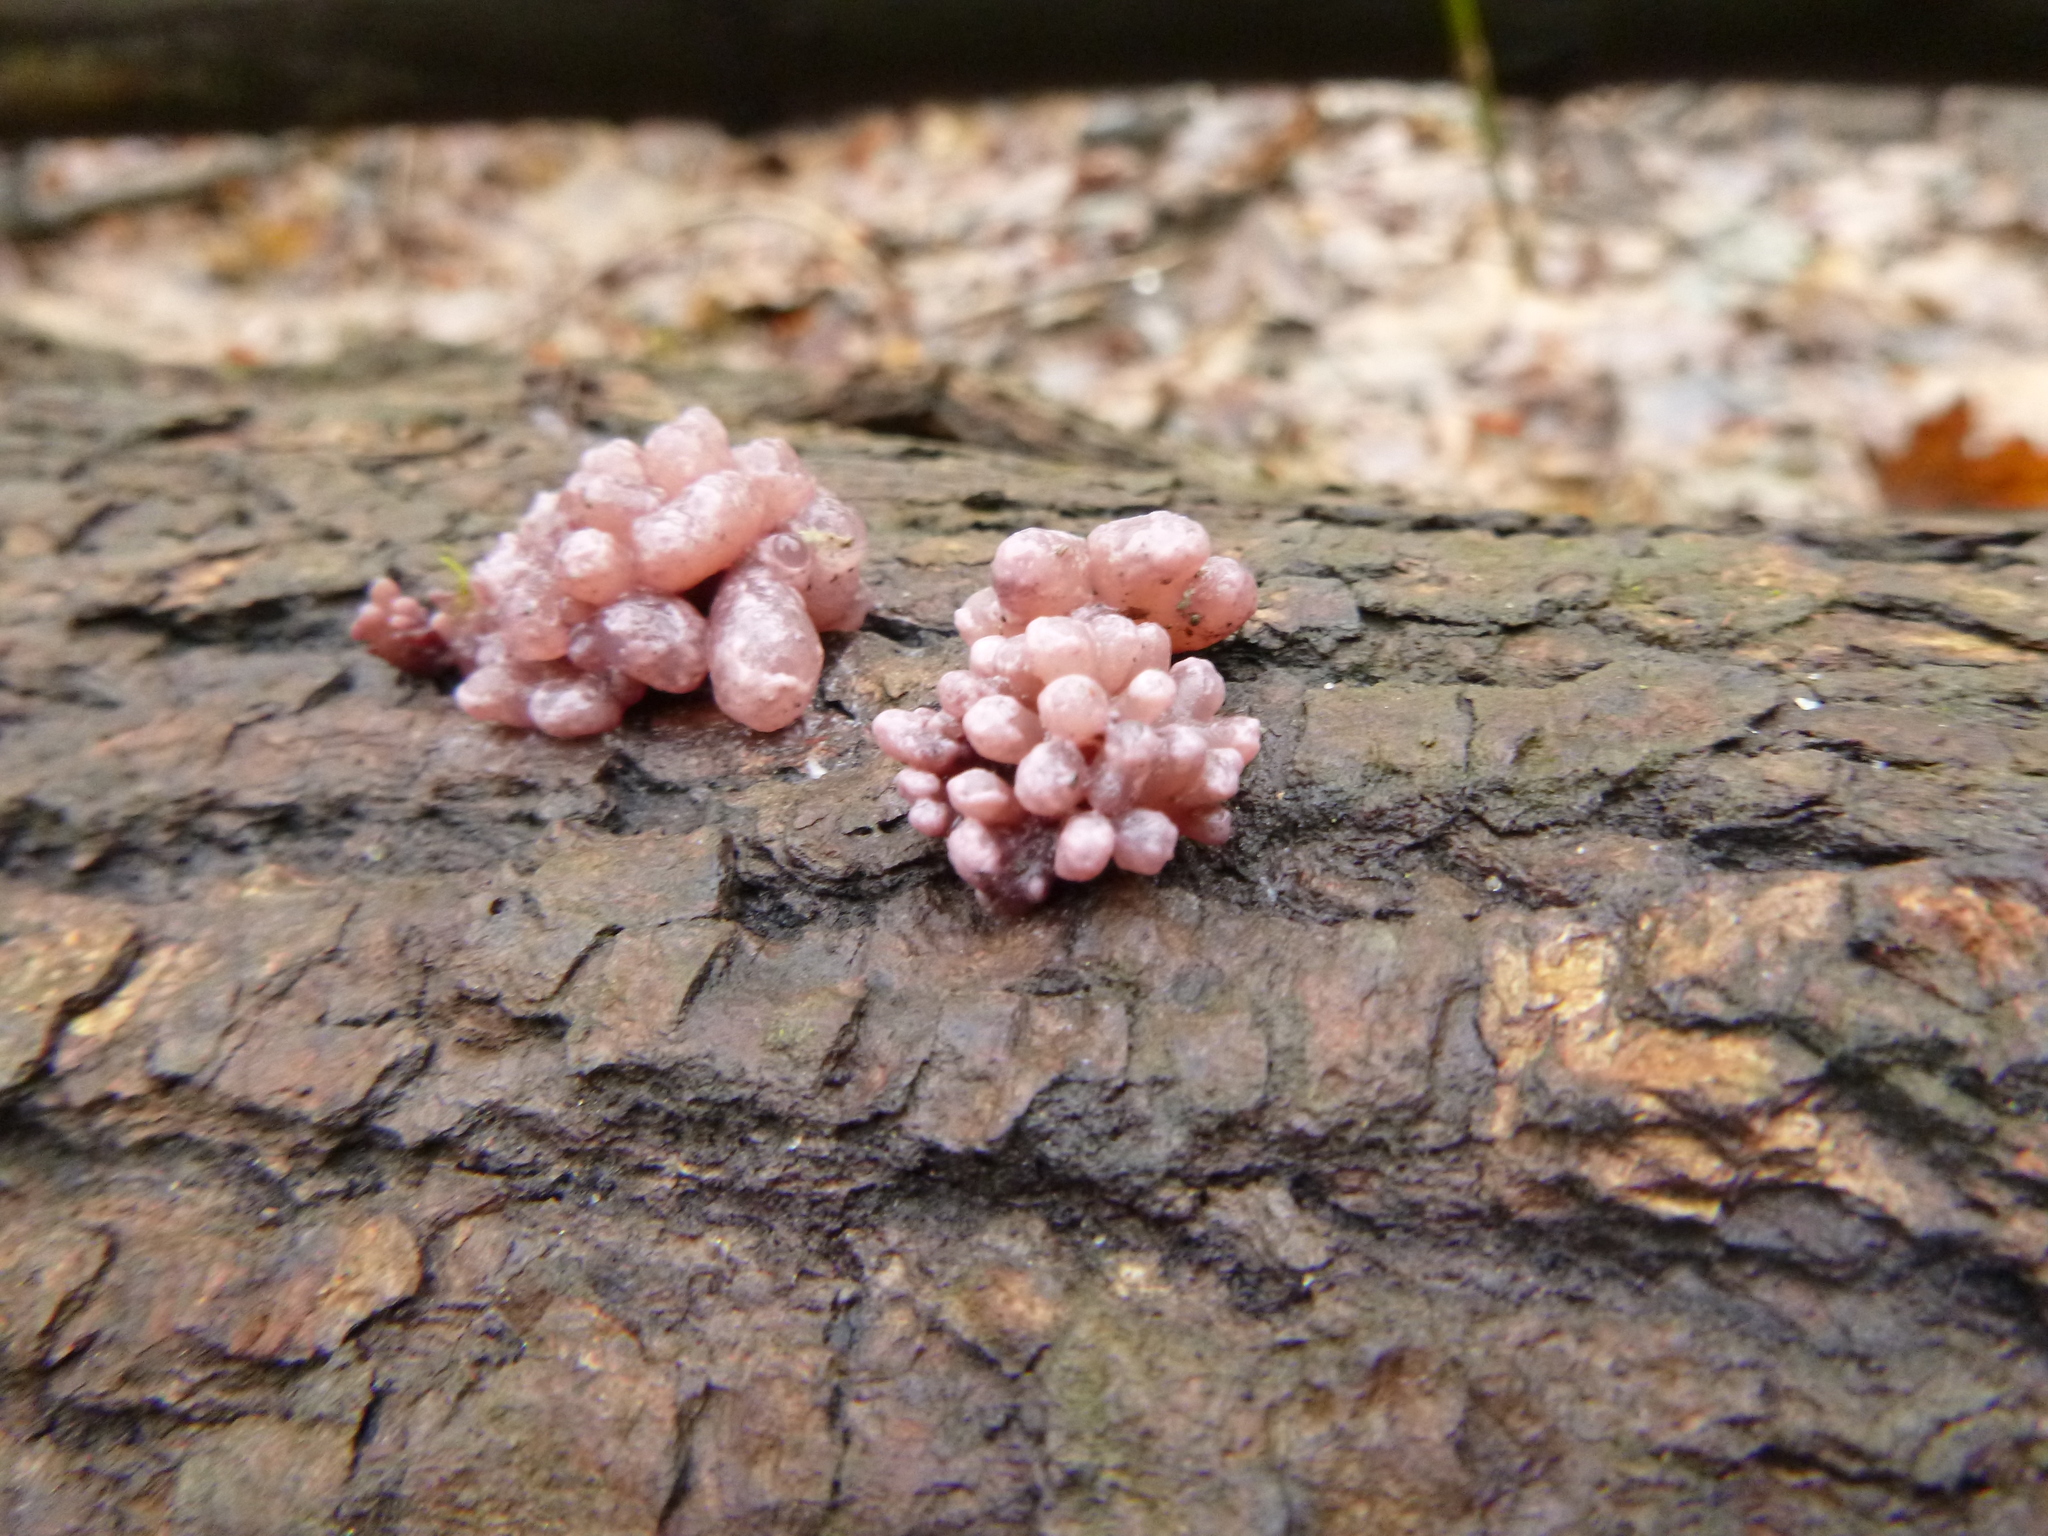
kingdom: Protozoa
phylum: Mycetozoa
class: Myxomycetes
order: Cribrariales
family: Tubiferaceae
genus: Lycogala
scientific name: Lycogala epidendrum
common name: Wolf's milk
